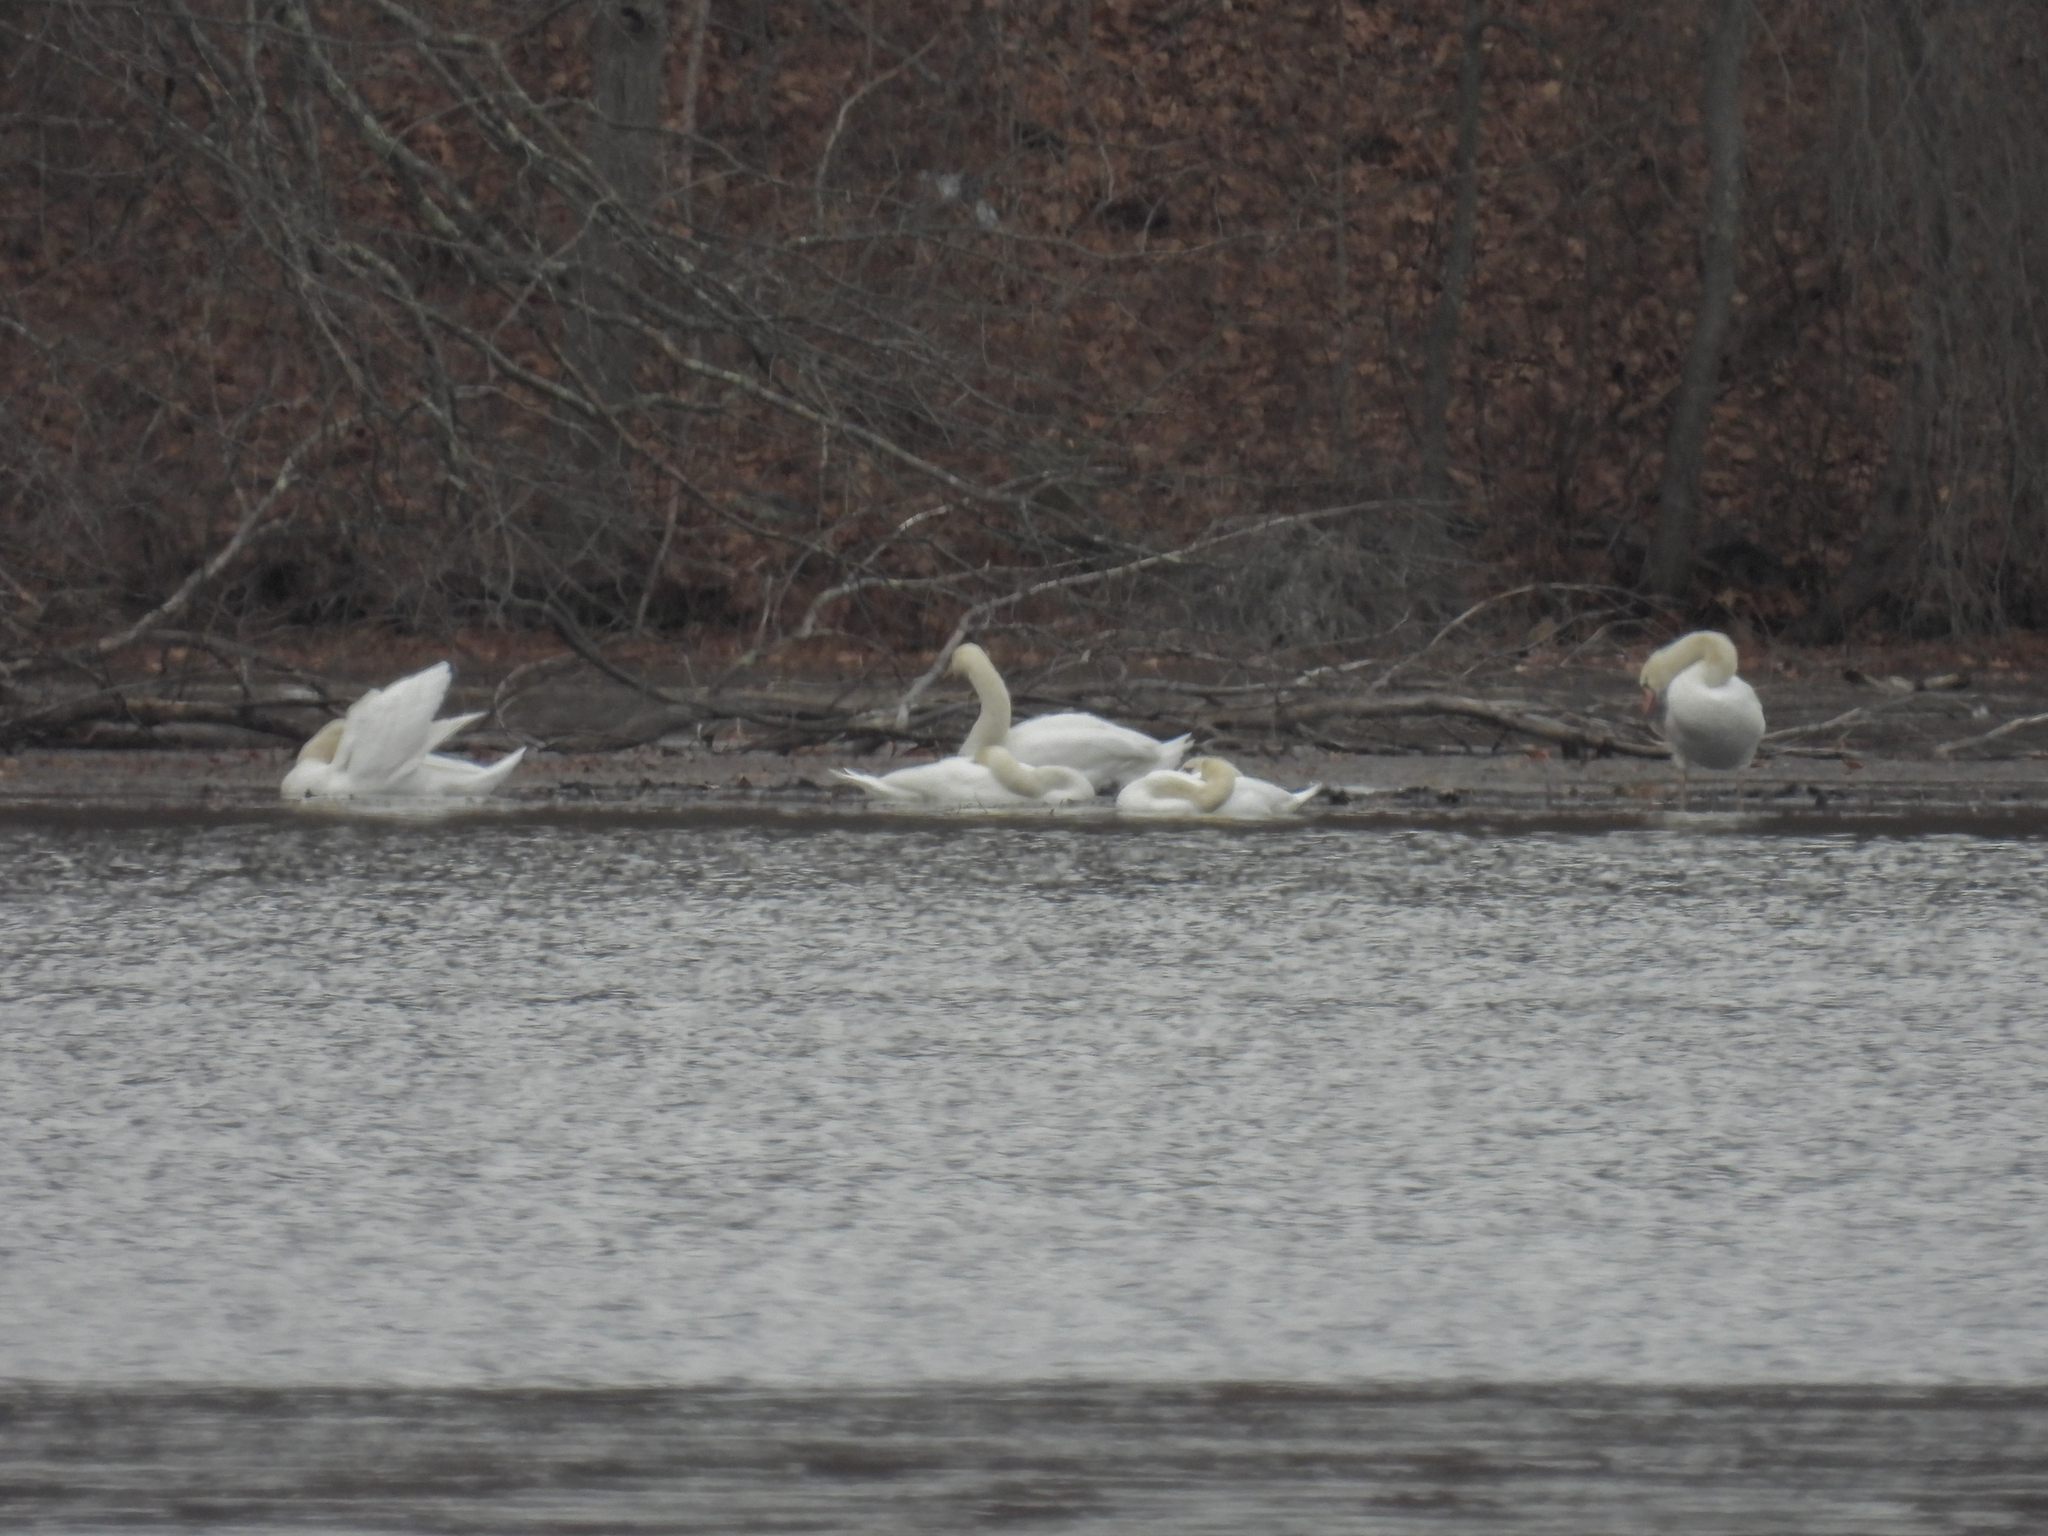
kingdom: Animalia
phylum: Chordata
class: Aves
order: Anseriformes
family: Anatidae
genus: Cygnus
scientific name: Cygnus olor
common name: Mute swan
